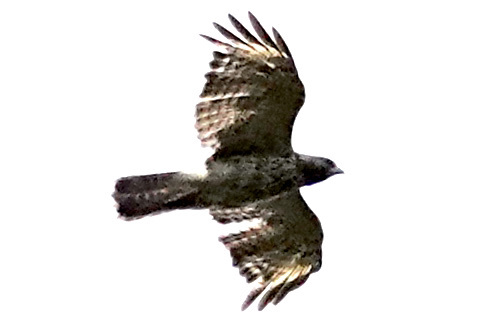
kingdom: Animalia
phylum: Chordata
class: Aves
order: Accipitriformes
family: Accipitridae
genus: Buteo
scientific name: Buteo lineatus
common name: Red-shouldered hawk
